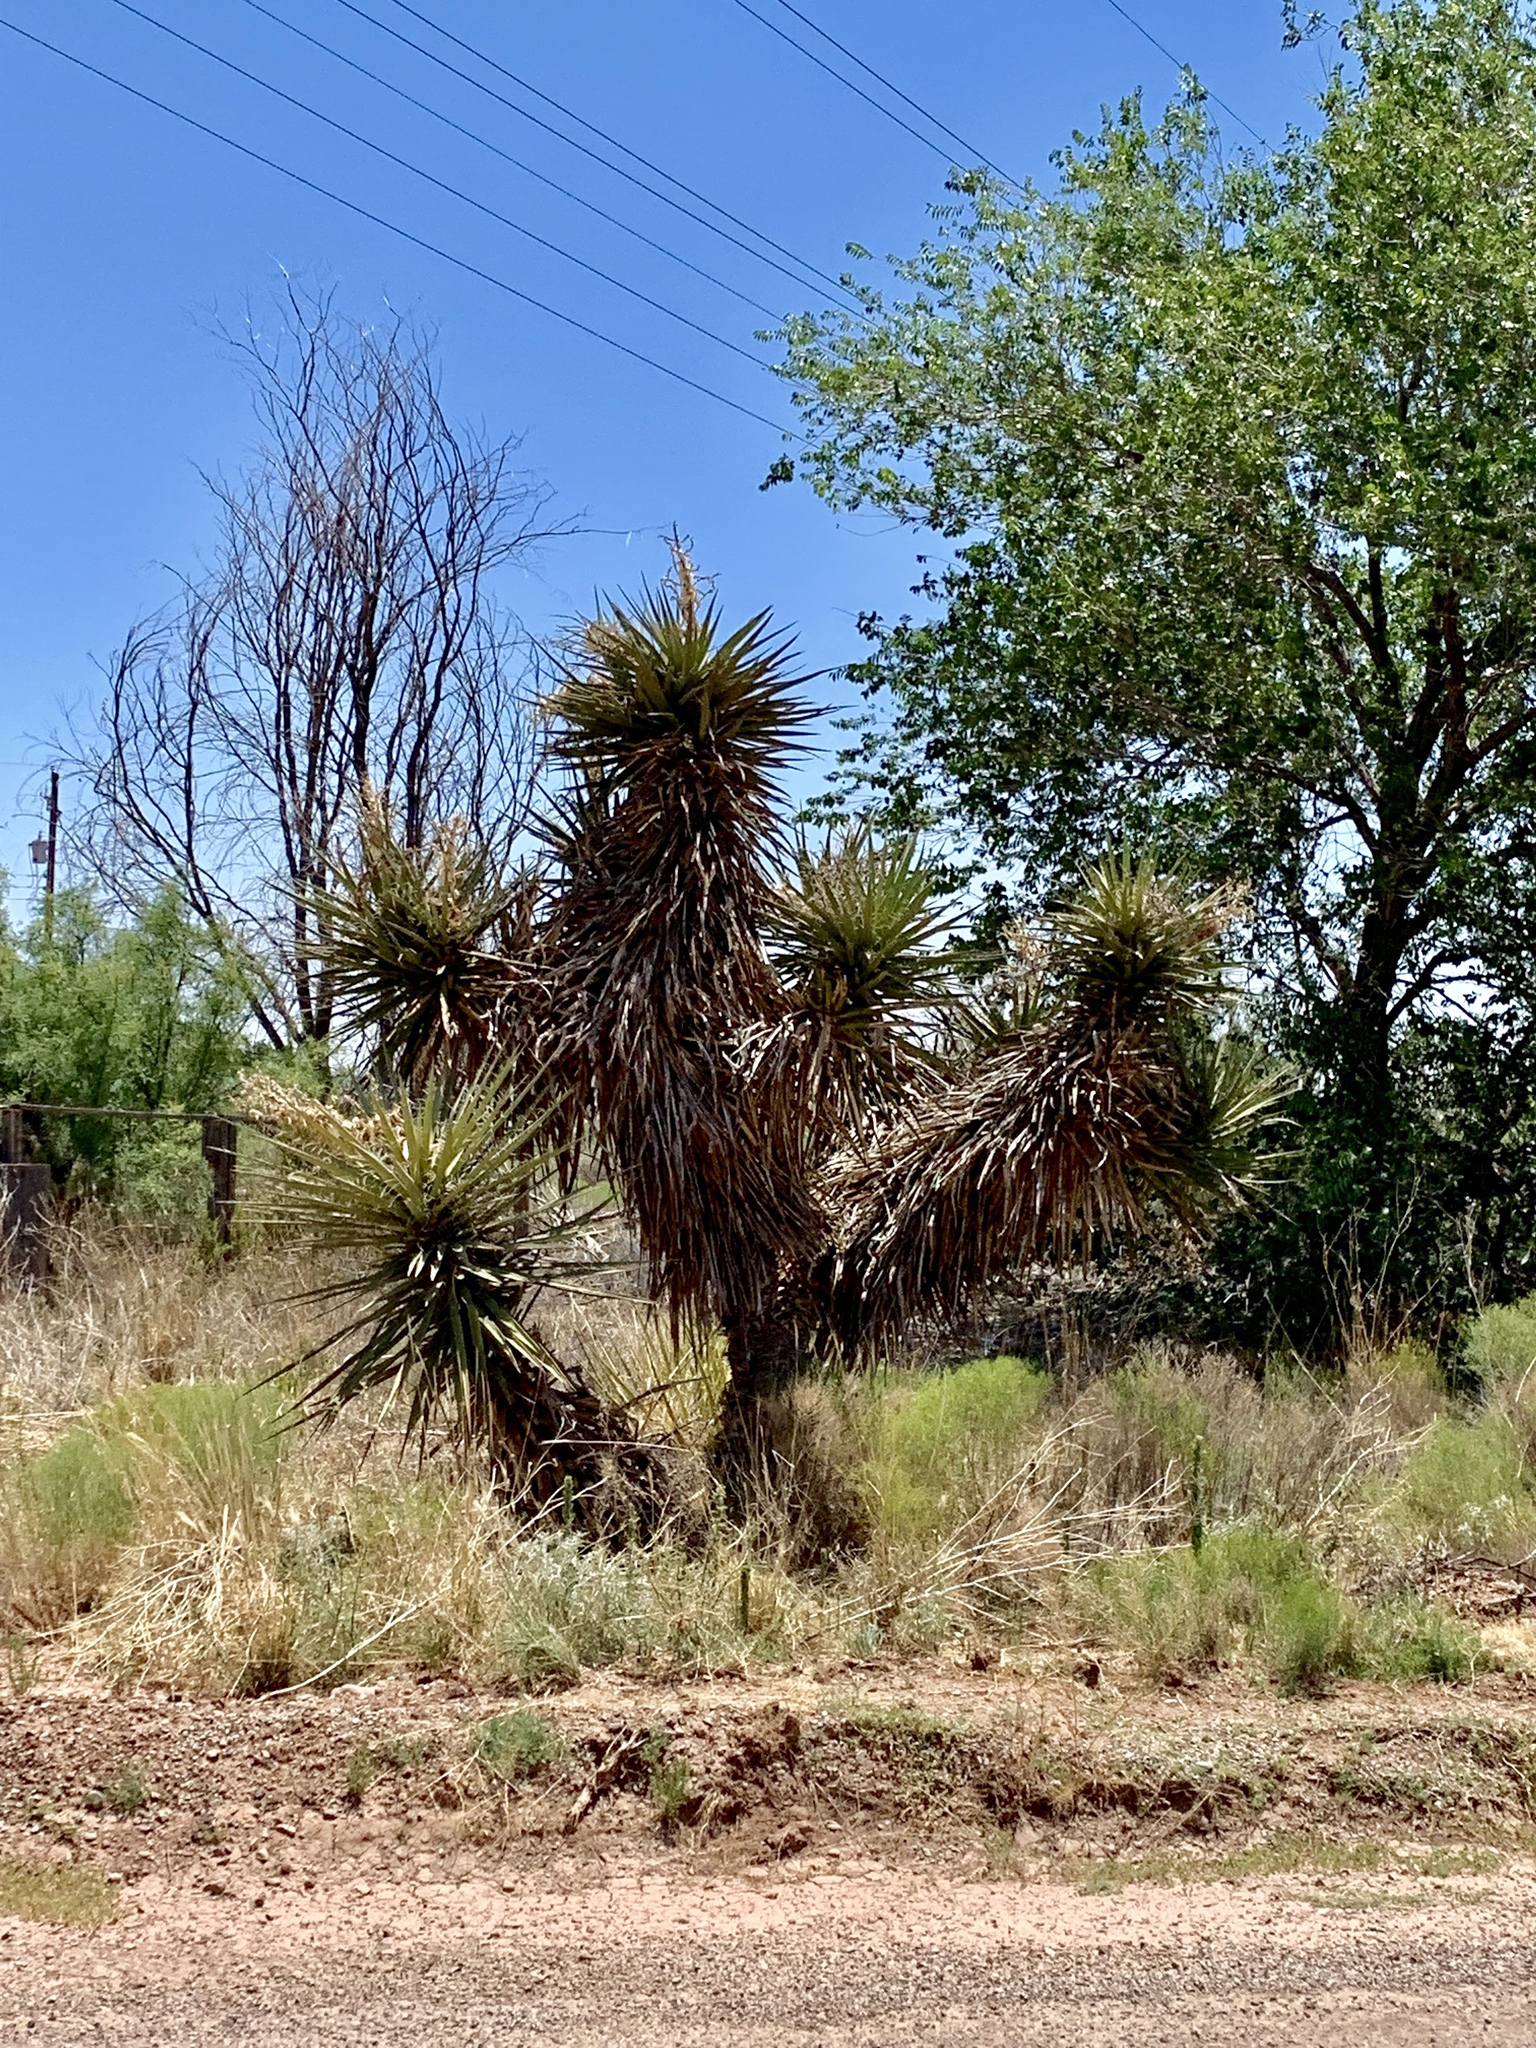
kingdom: Plantae
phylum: Tracheophyta
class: Liliopsida
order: Asparagales
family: Asparagaceae
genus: Yucca
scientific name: Yucca treculiana
